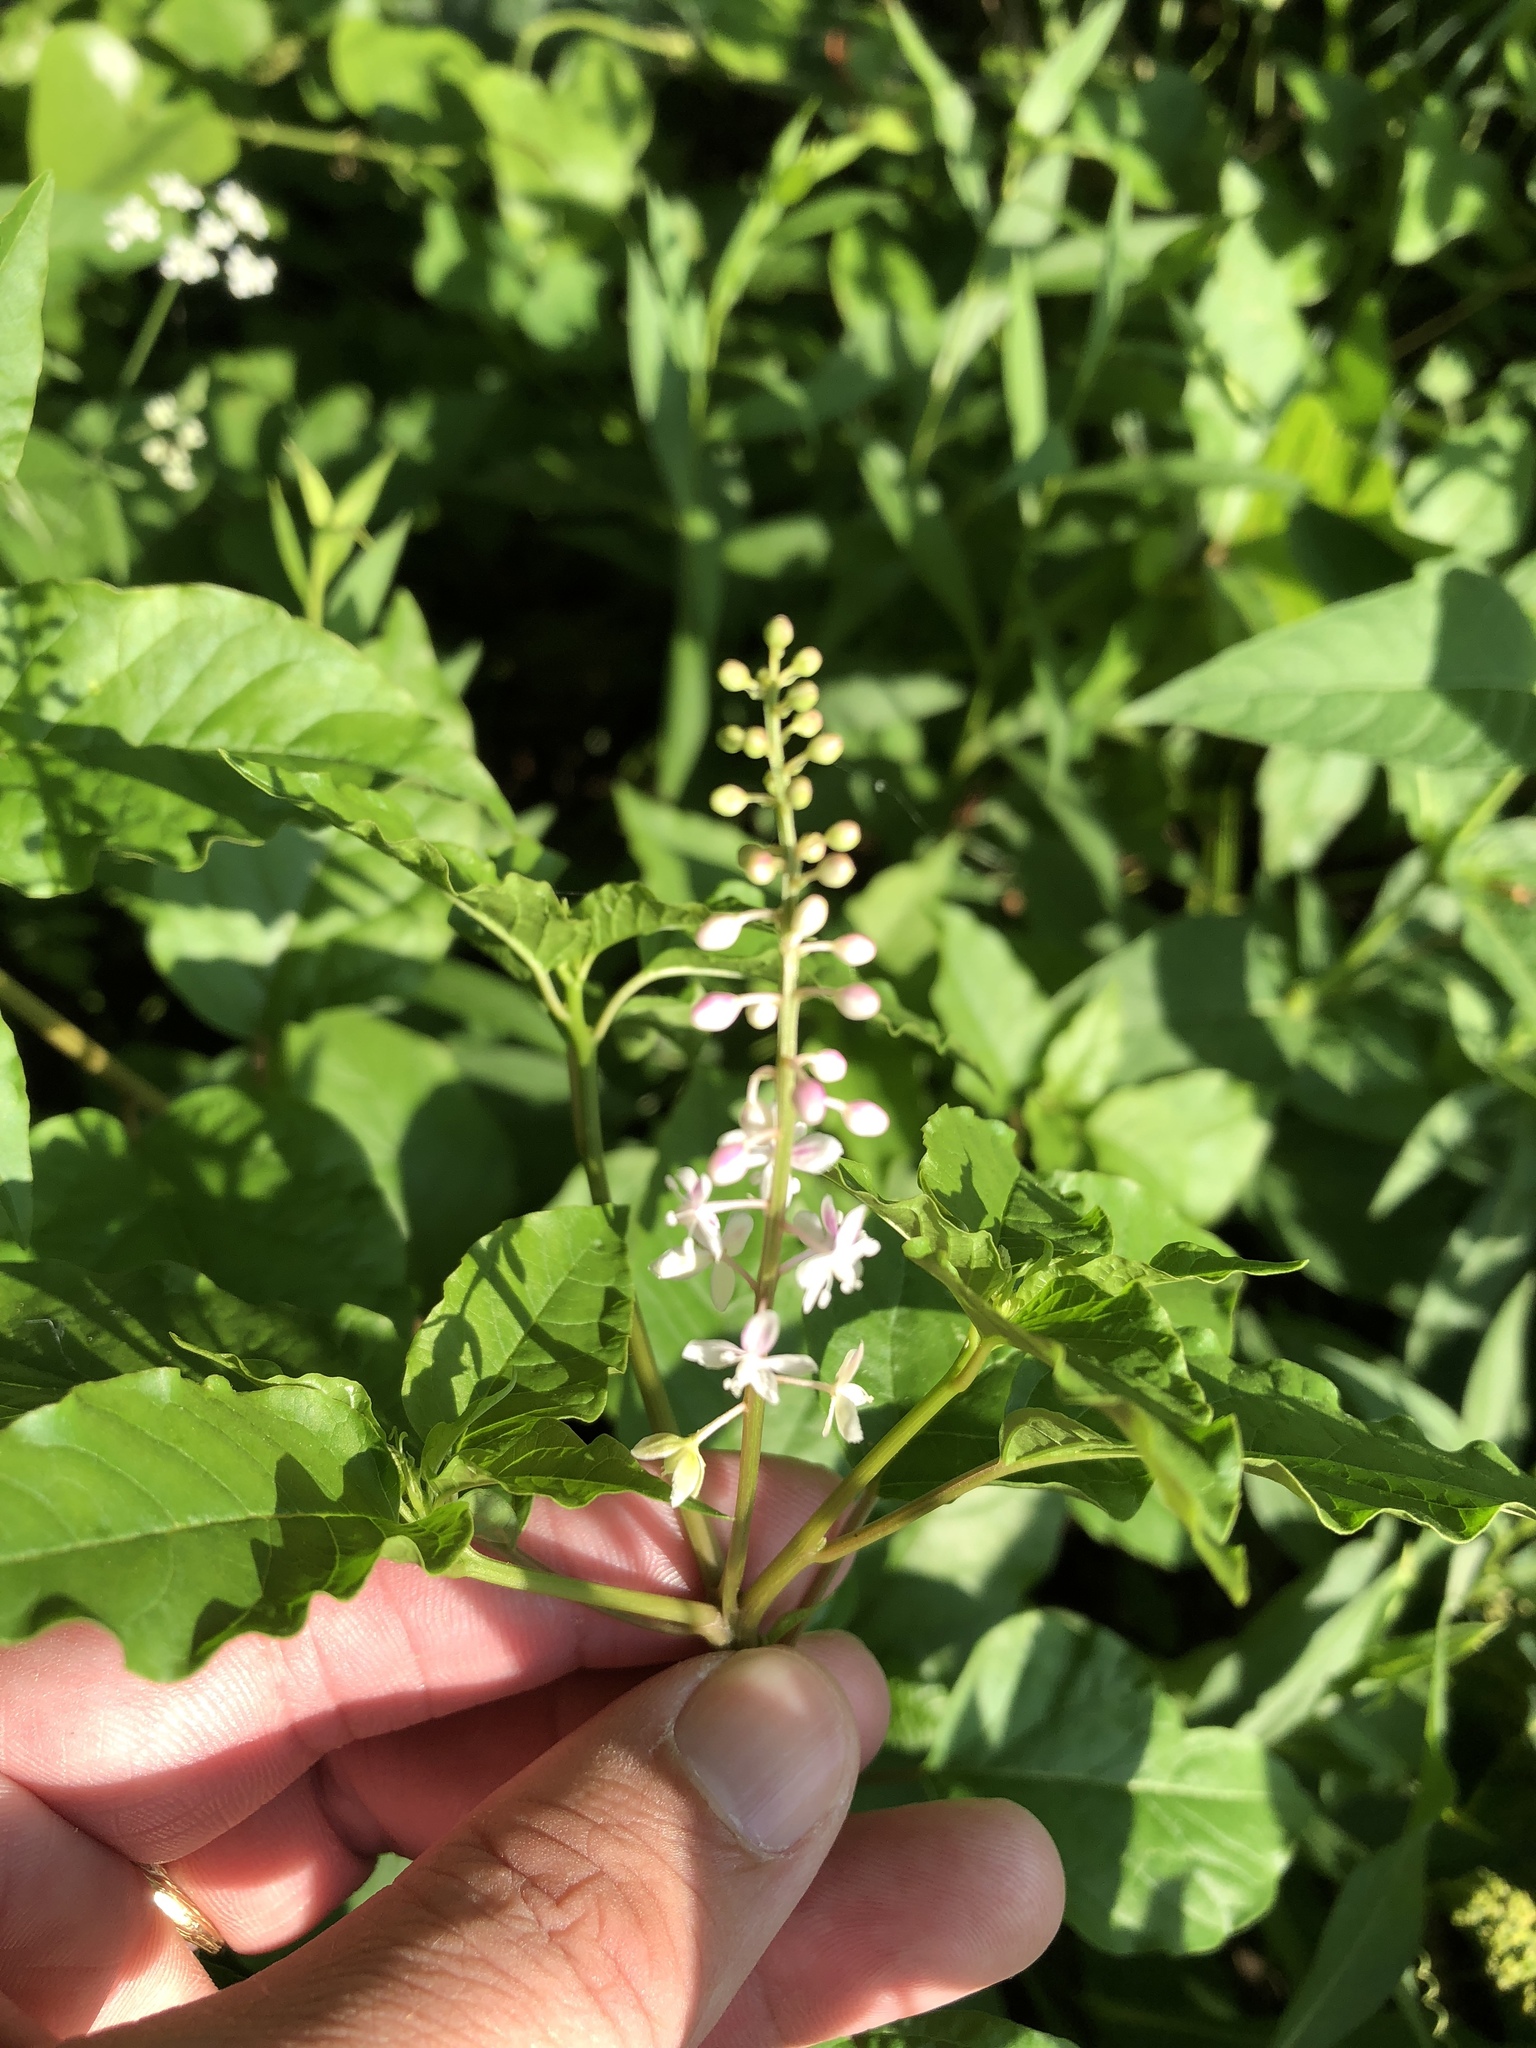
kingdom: Plantae
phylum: Tracheophyta
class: Magnoliopsida
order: Caryophyllales
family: Phytolaccaceae
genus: Rivina
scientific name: Rivina humilis
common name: Rougeplant
